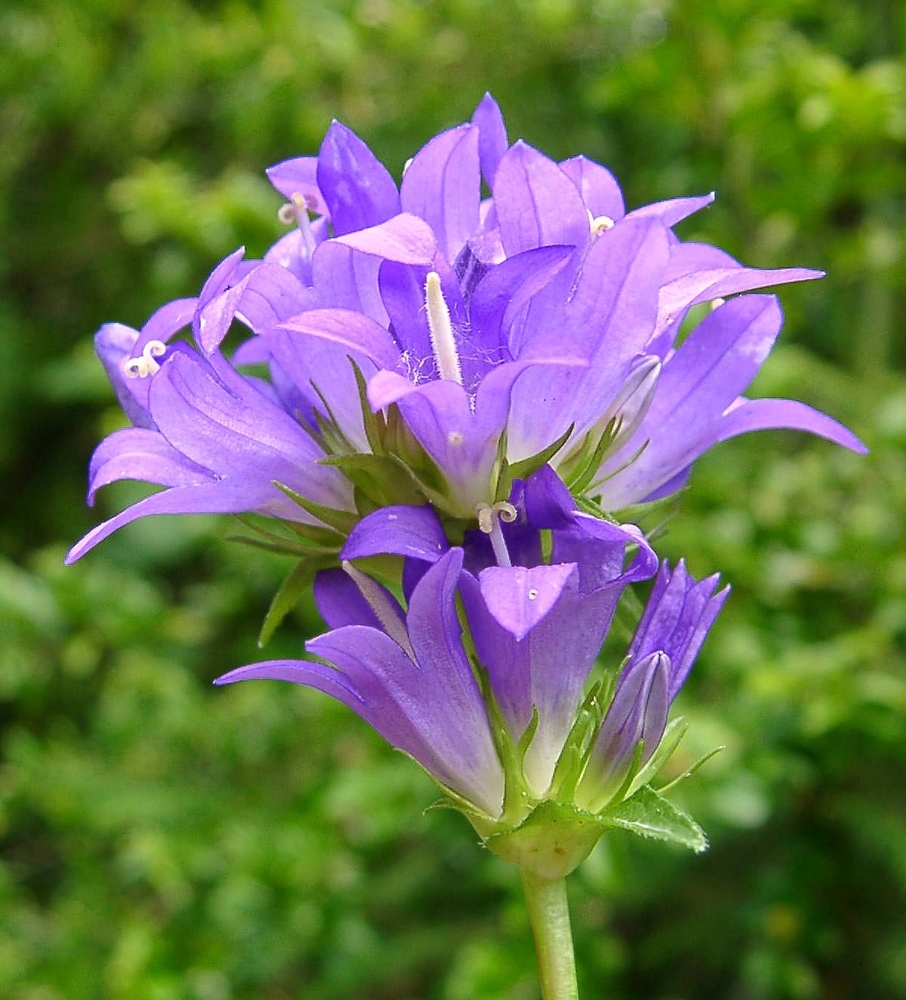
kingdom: Plantae
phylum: Tracheophyta
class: Magnoliopsida
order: Asterales
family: Campanulaceae
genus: Campanula
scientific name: Campanula glomerata
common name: Clustered bellflower
